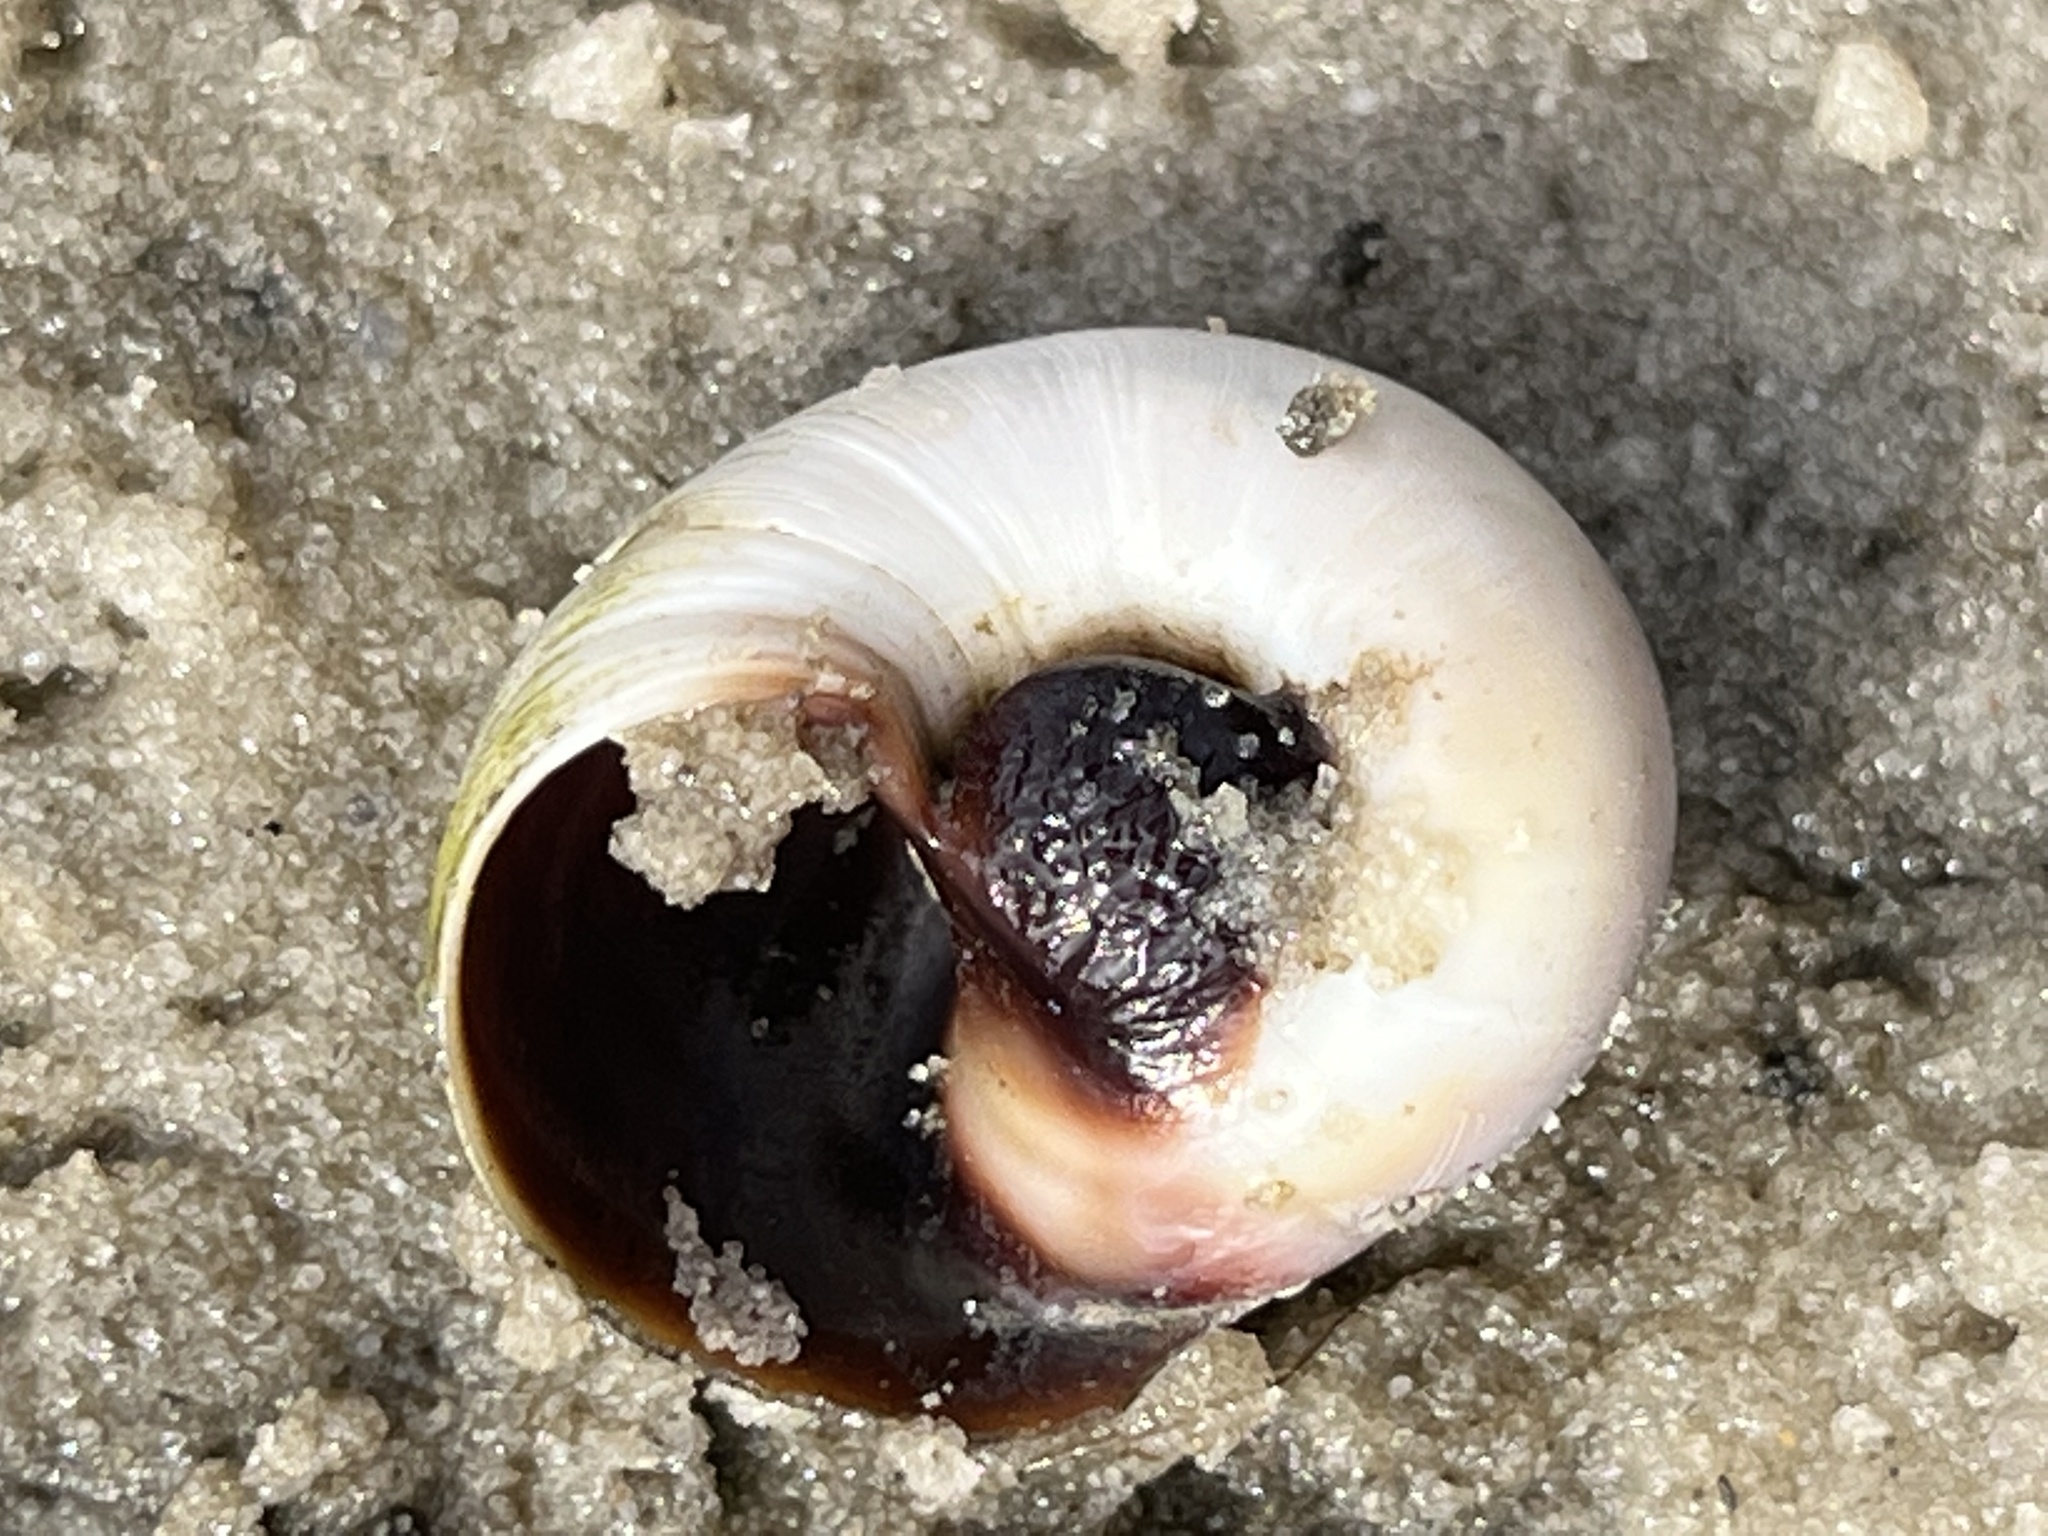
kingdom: Animalia
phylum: Mollusca
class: Gastropoda
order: Littorinimorpha
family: Naticidae
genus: Neverita
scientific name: Neverita duplicata
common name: Lobed moonsnail
